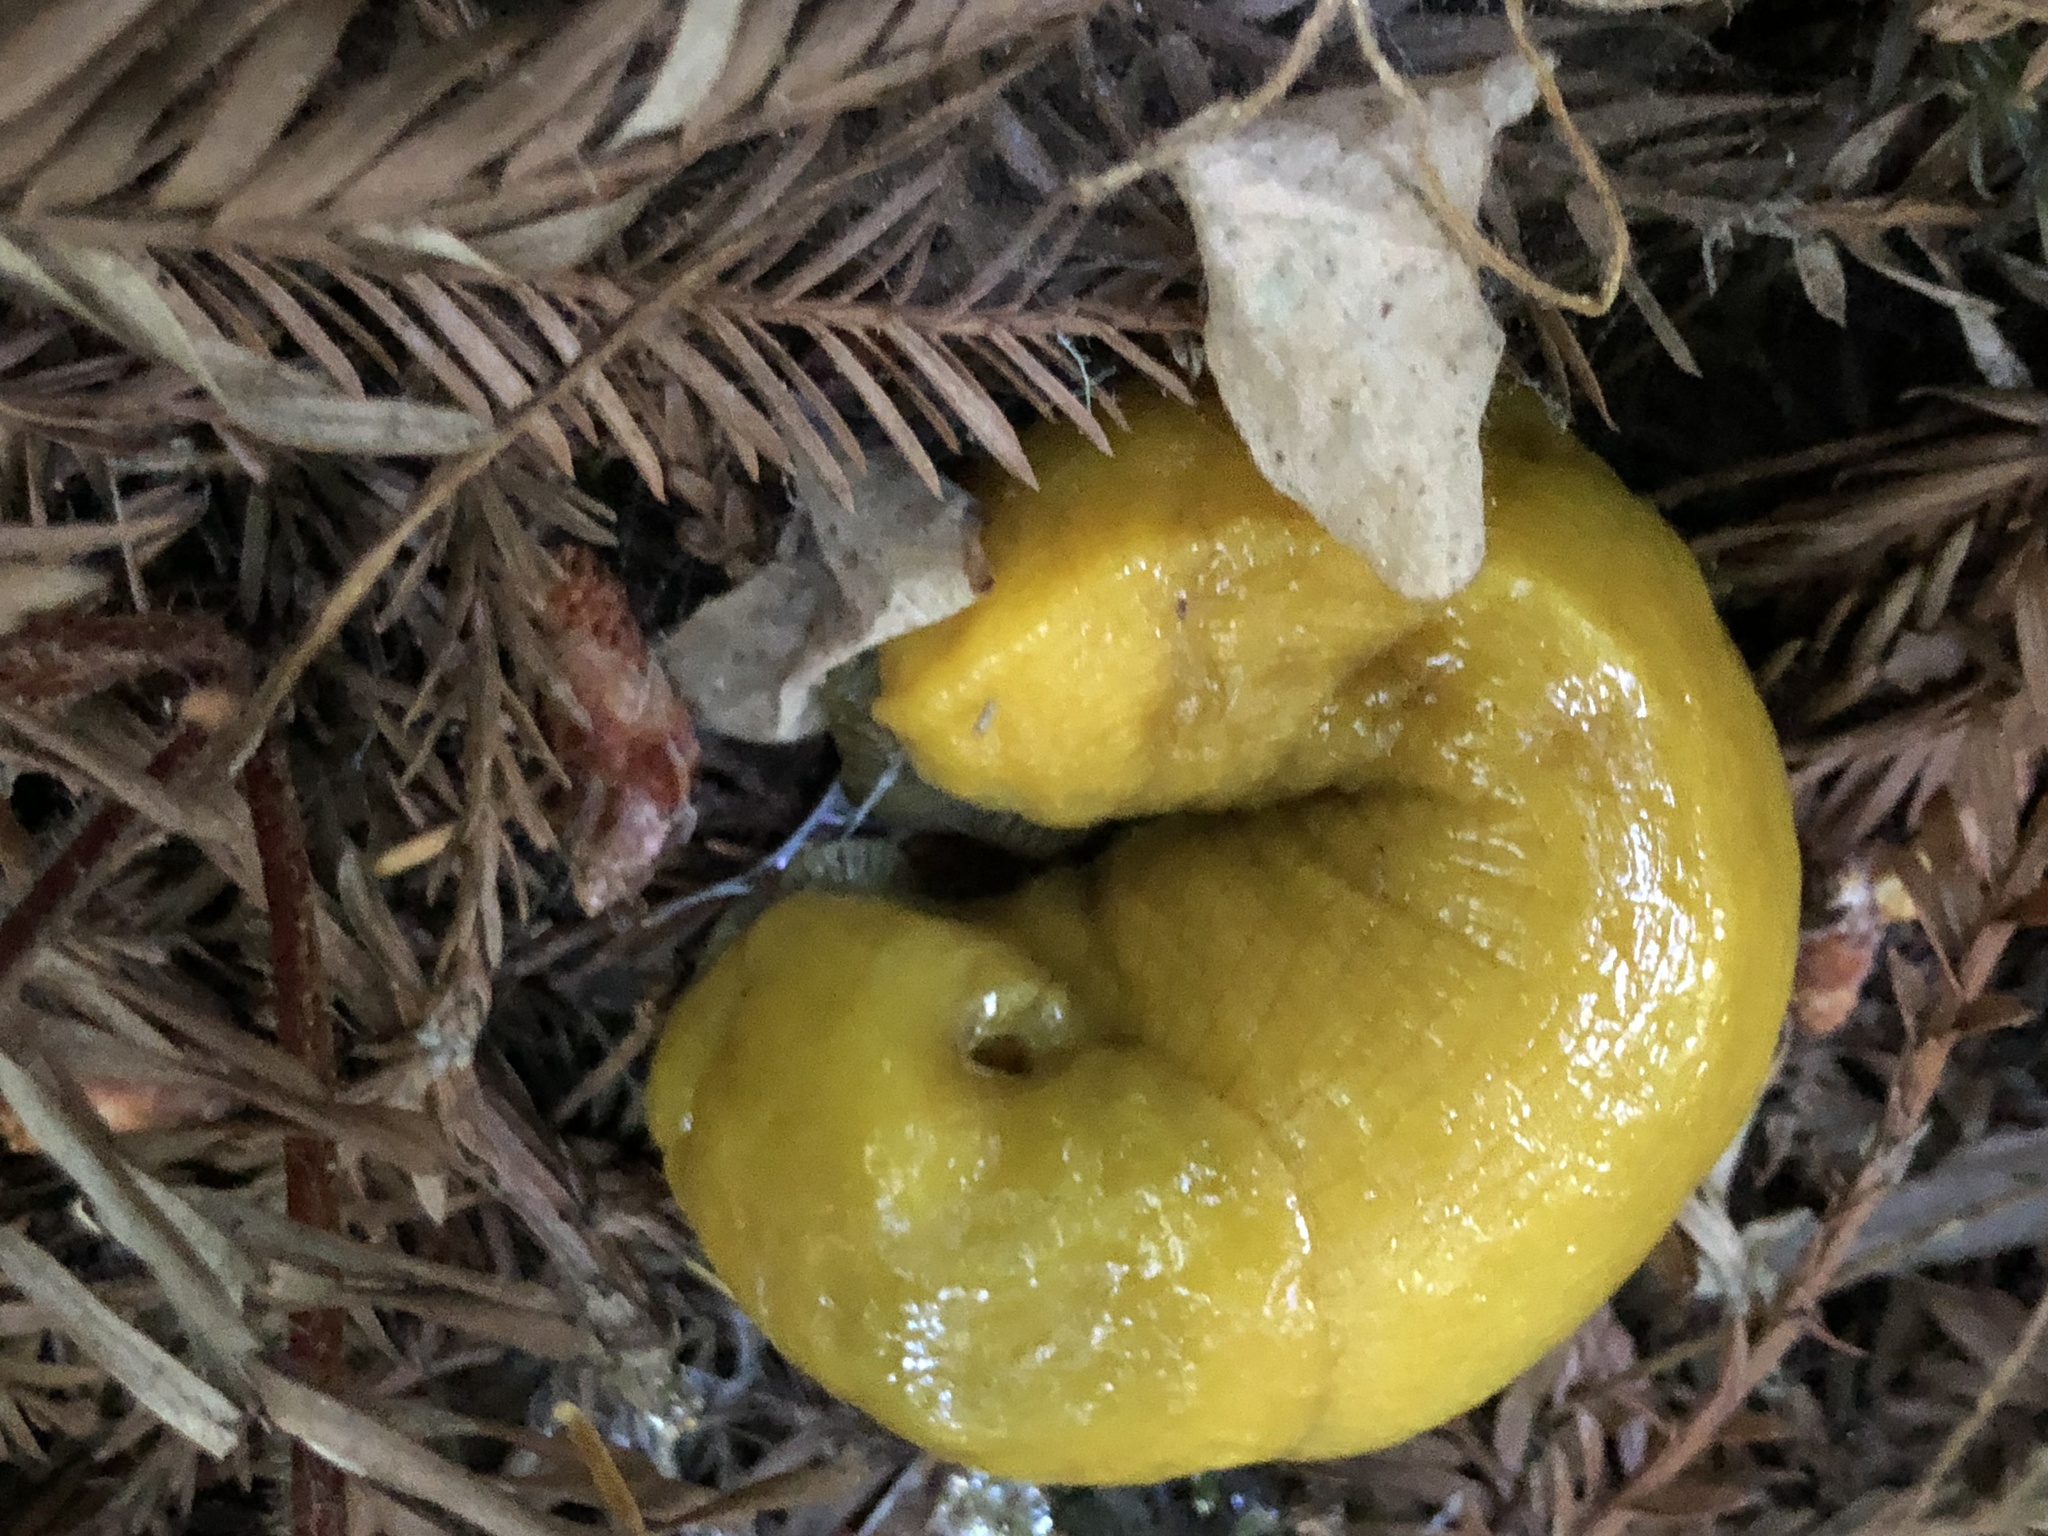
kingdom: Animalia
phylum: Mollusca
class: Gastropoda
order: Stylommatophora
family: Ariolimacidae
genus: Ariolimax
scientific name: Ariolimax dolichophallus
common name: Slender banana slug
